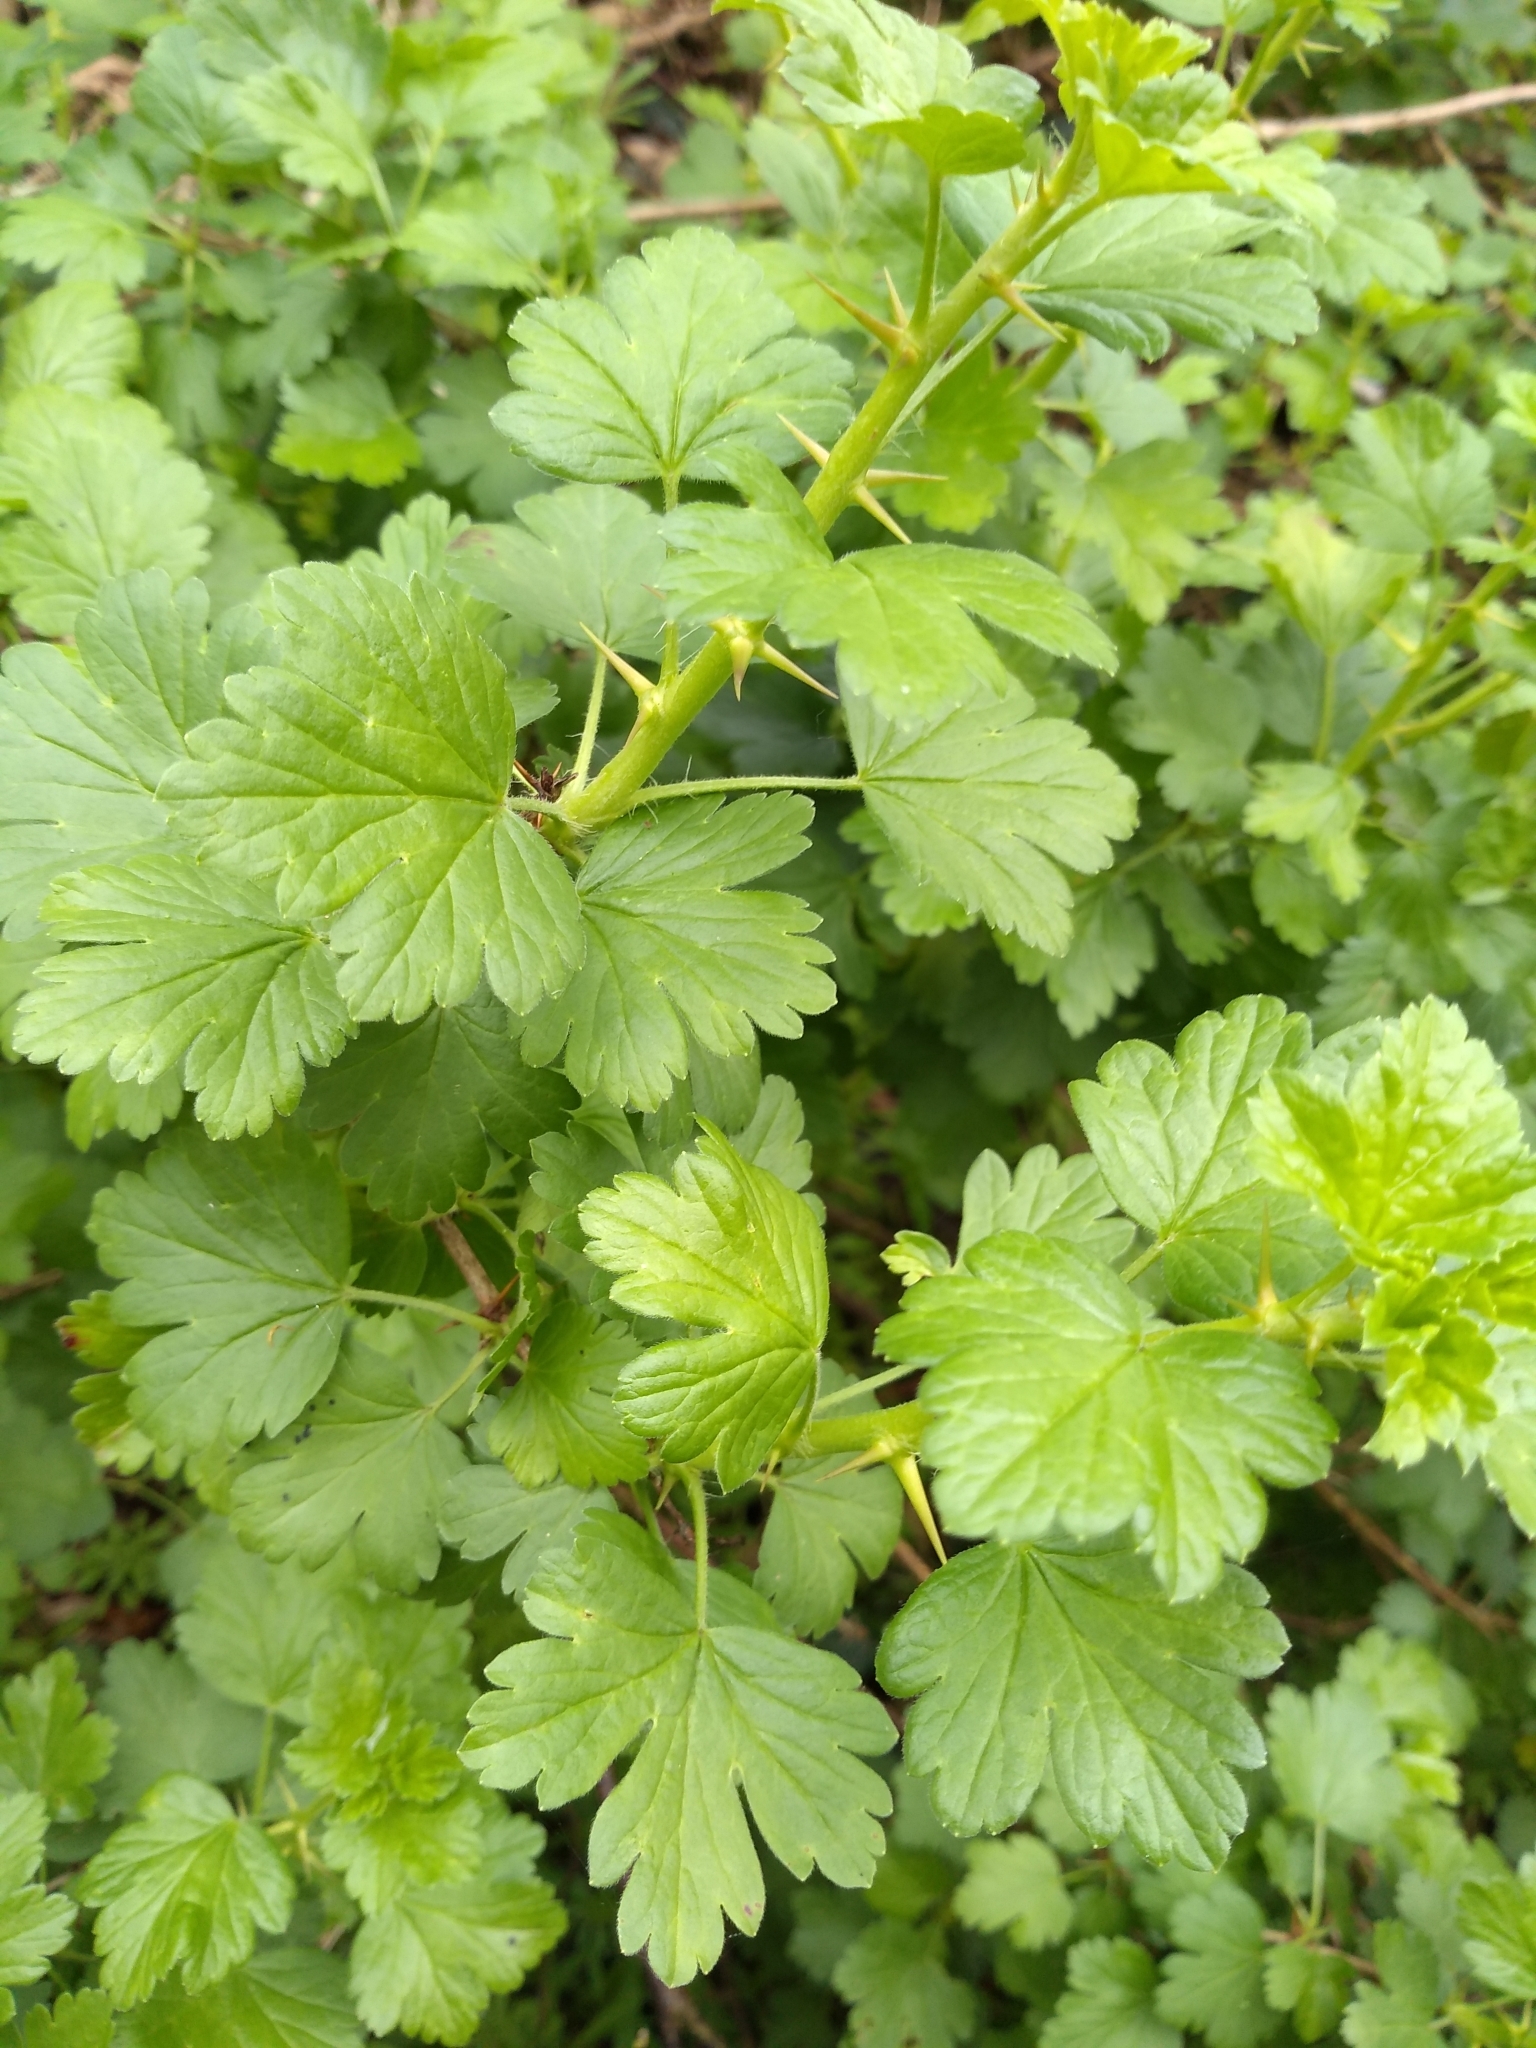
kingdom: Plantae
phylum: Tracheophyta
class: Magnoliopsida
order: Saxifragales
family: Grossulariaceae
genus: Ribes
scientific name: Ribes uva-crispa
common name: Gooseberry
